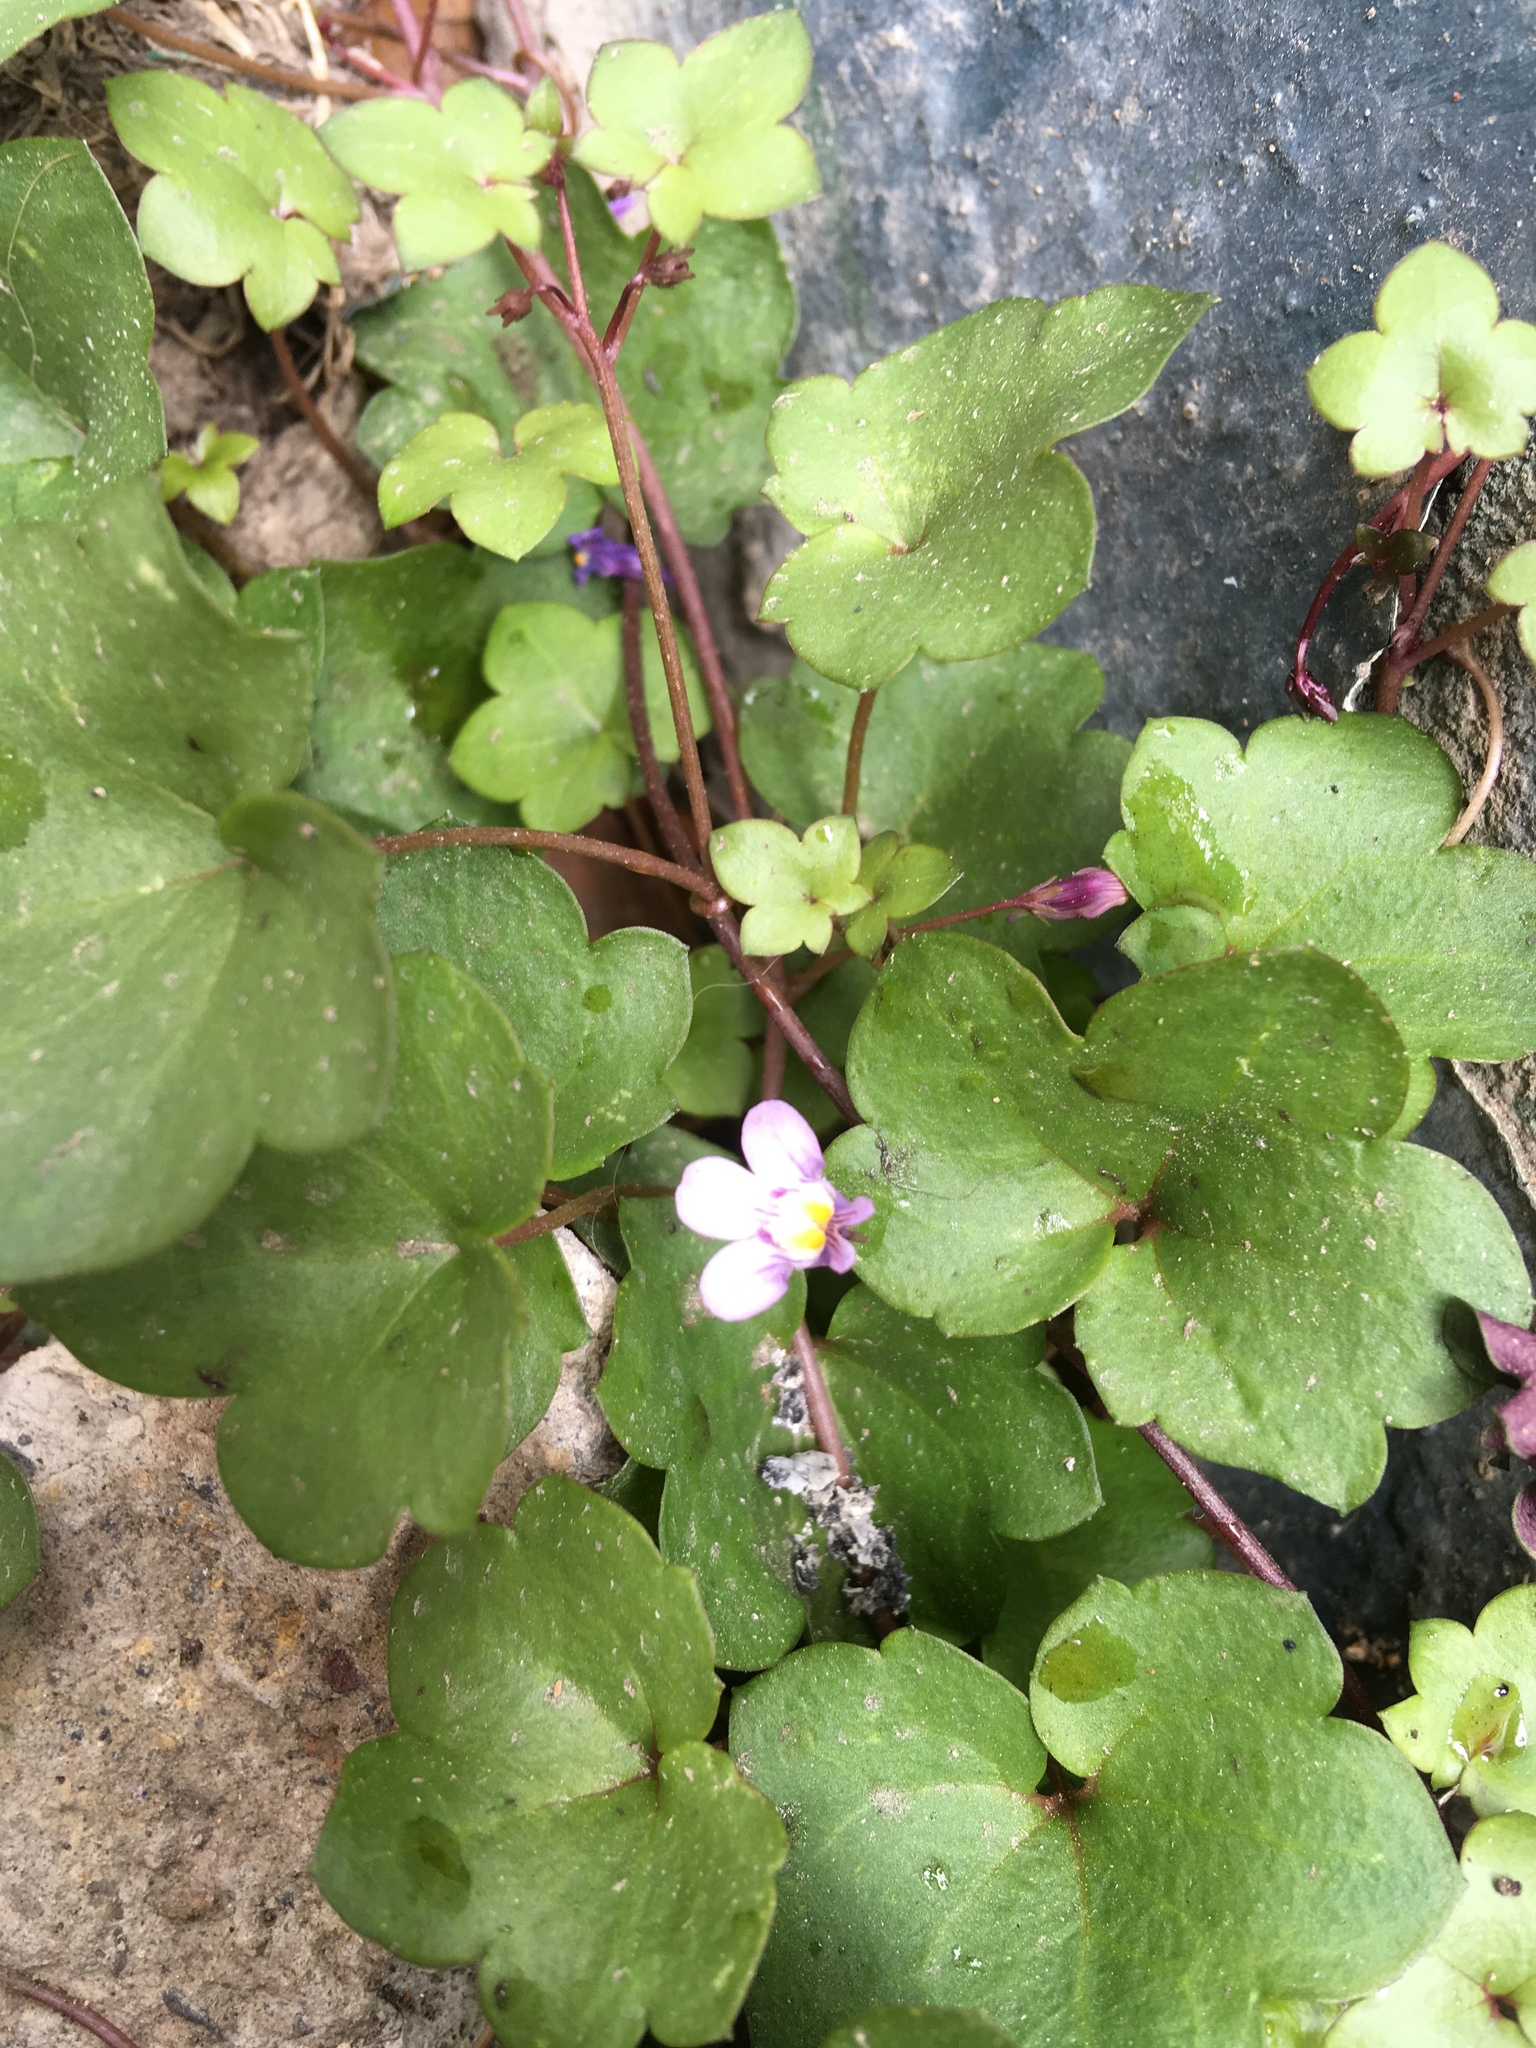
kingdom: Plantae
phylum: Tracheophyta
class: Magnoliopsida
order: Lamiales
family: Plantaginaceae
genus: Cymbalaria
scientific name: Cymbalaria muralis
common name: Ivy-leaved toadflax
